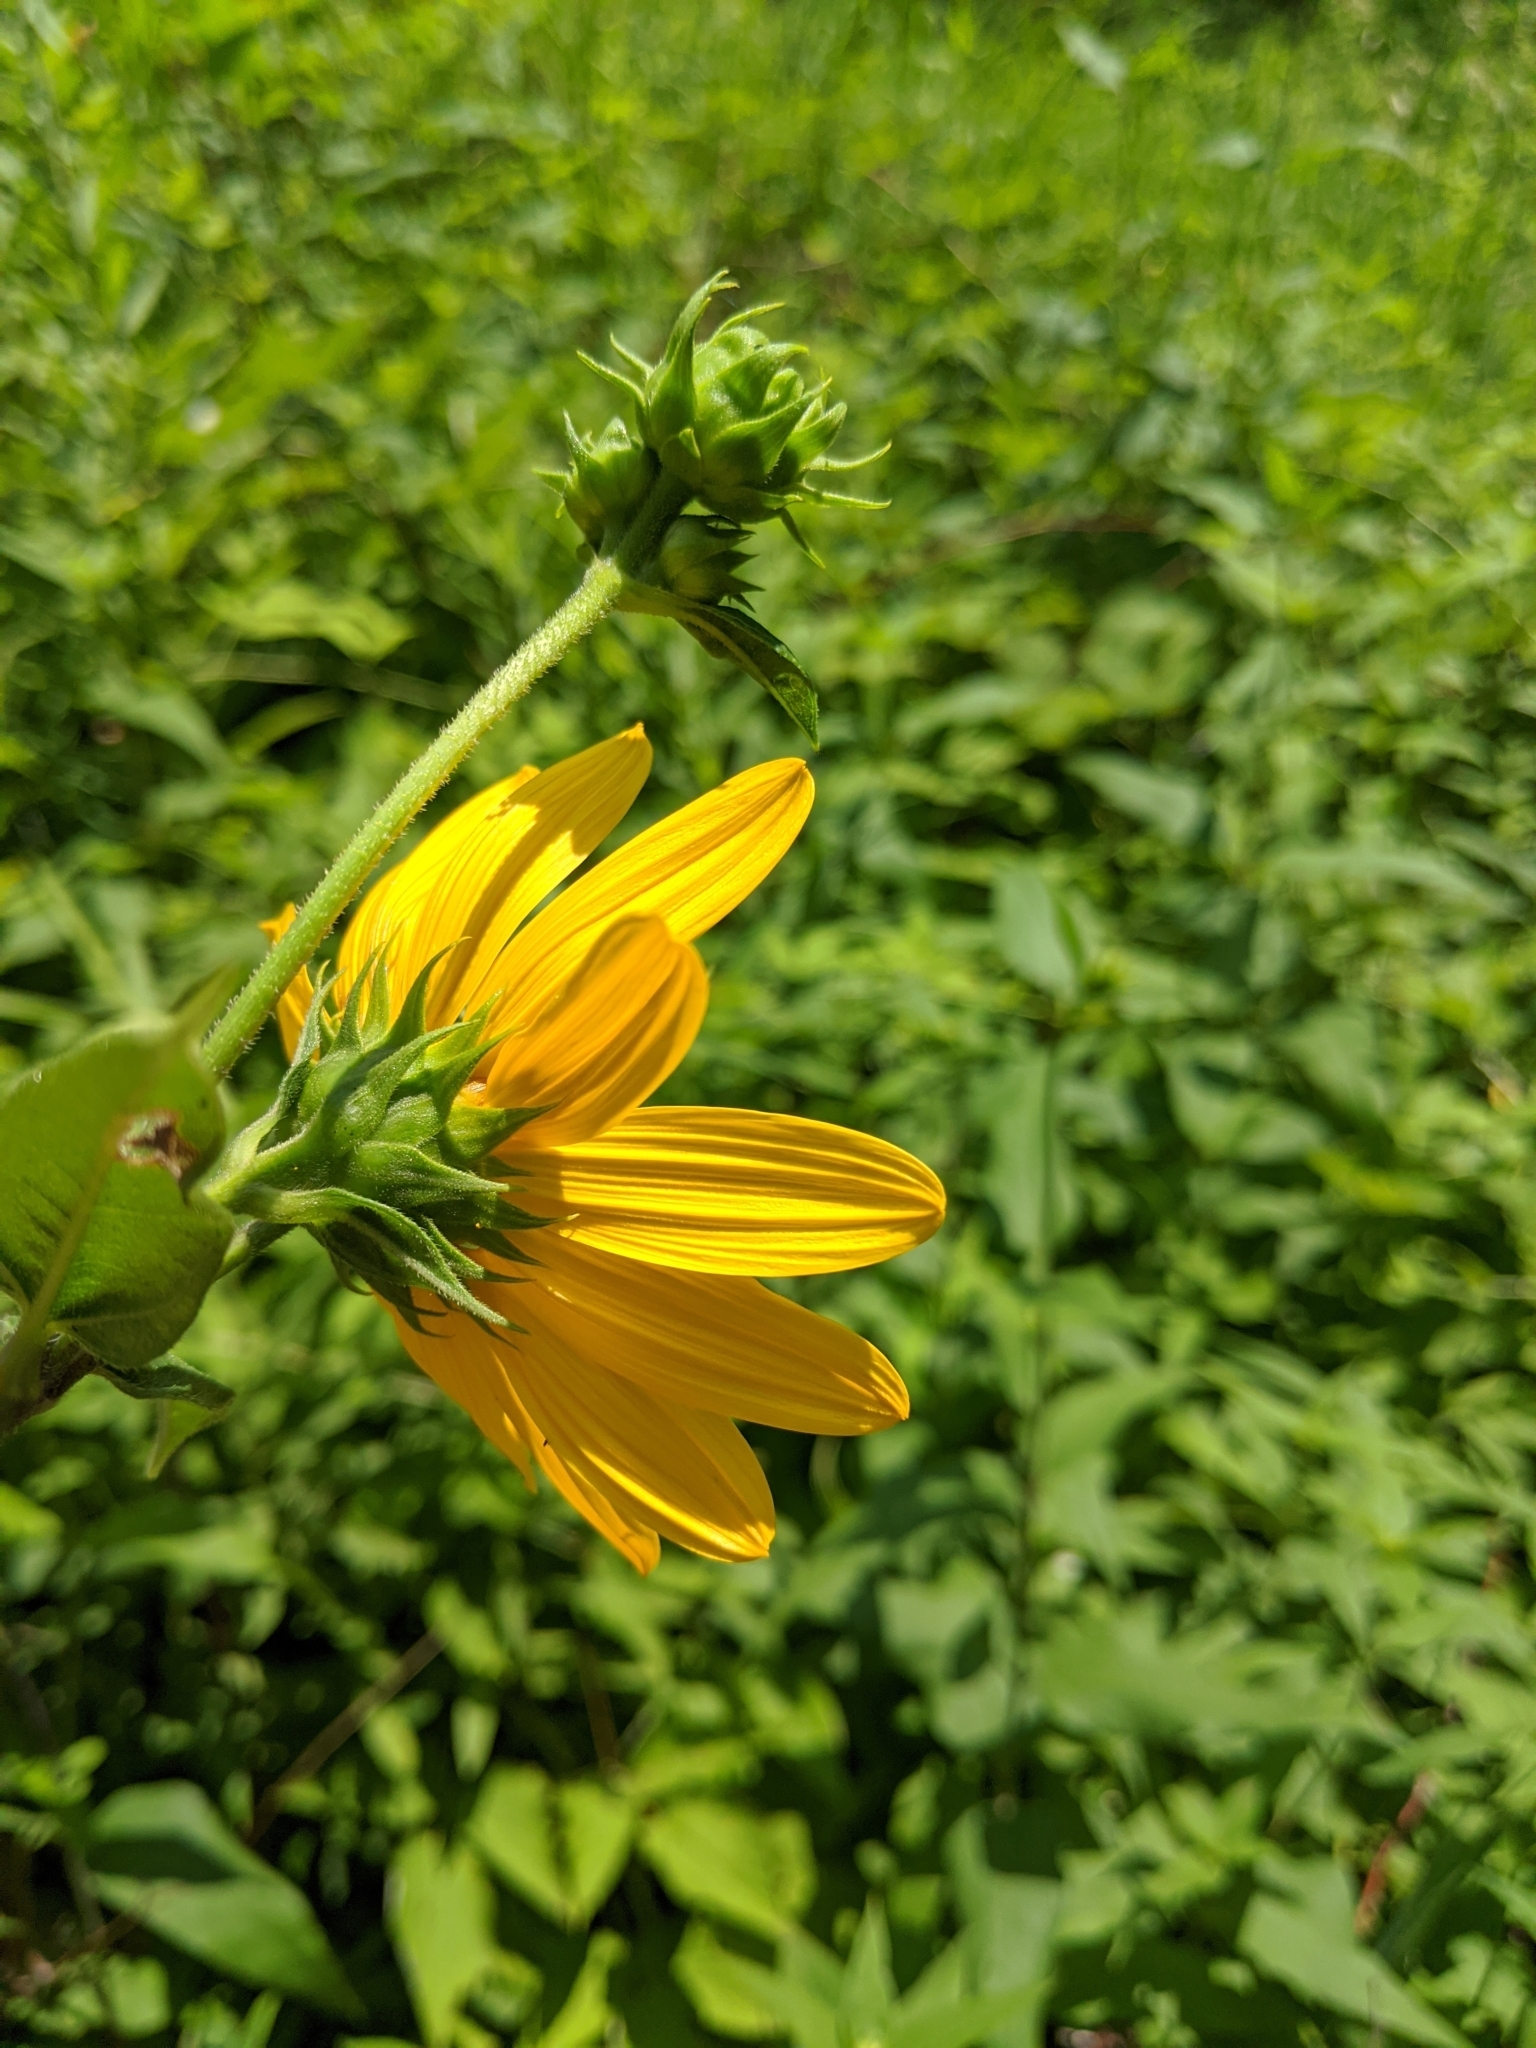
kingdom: Plantae
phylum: Tracheophyta
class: Magnoliopsida
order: Asterales
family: Asteraceae
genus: Helianthus
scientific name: Helianthus tuberosus
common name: Jerusalem artichoke
